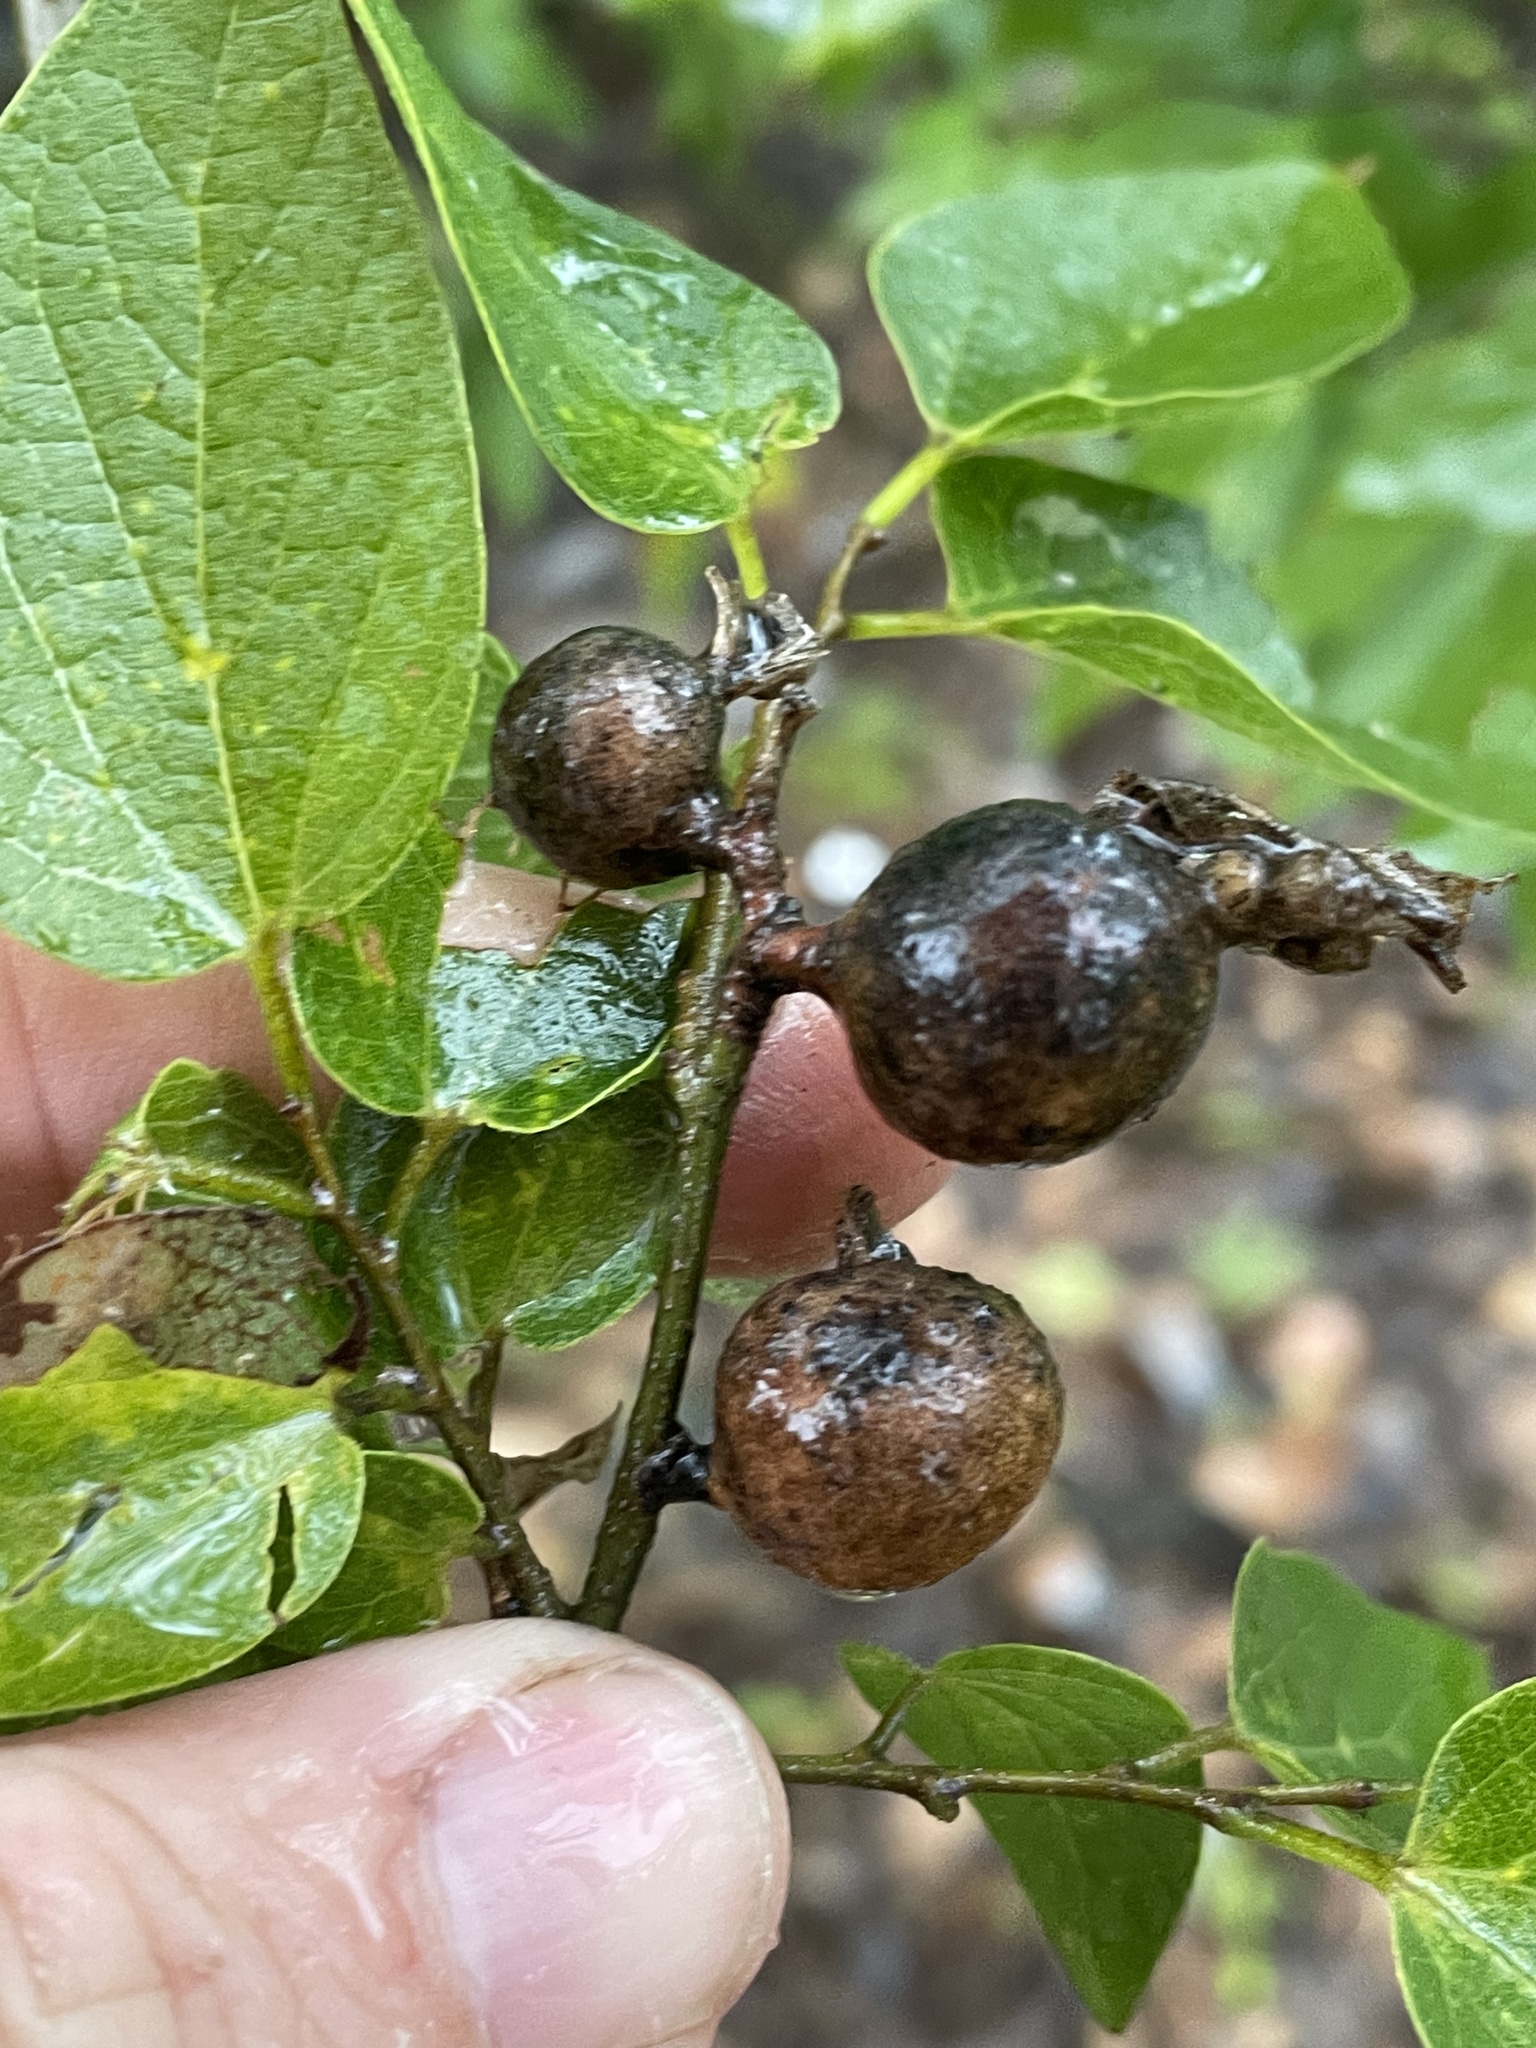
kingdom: Animalia
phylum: Arthropoda
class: Insecta
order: Hemiptera
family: Aphalaridae
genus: Pachypsylla
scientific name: Pachypsylla venusta
